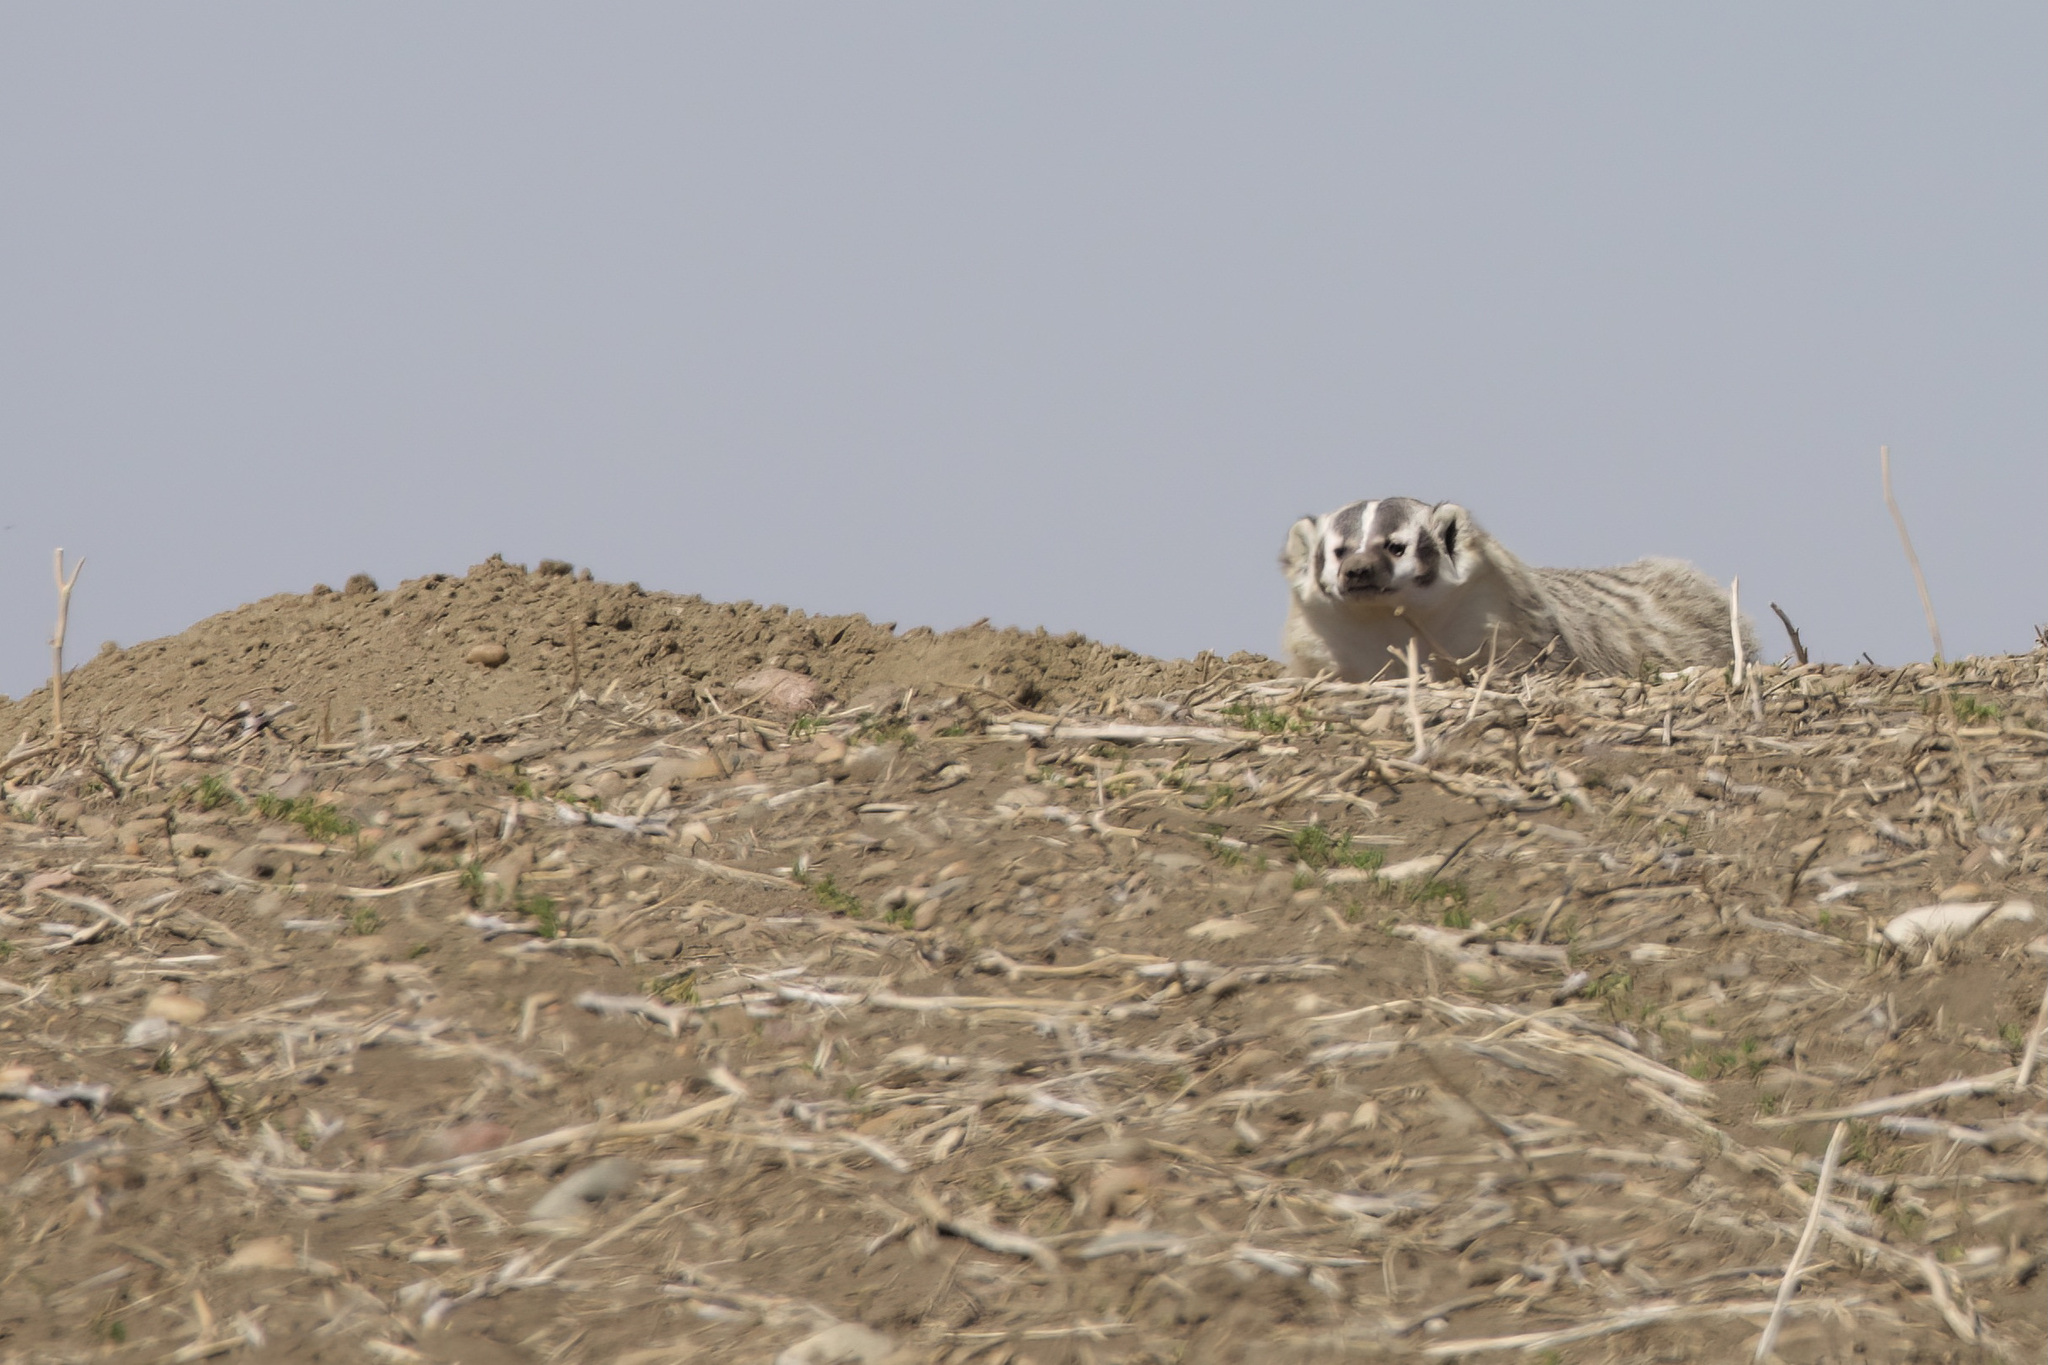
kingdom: Animalia
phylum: Chordata
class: Mammalia
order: Carnivora
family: Mustelidae
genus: Taxidea
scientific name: Taxidea taxus
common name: American badger
